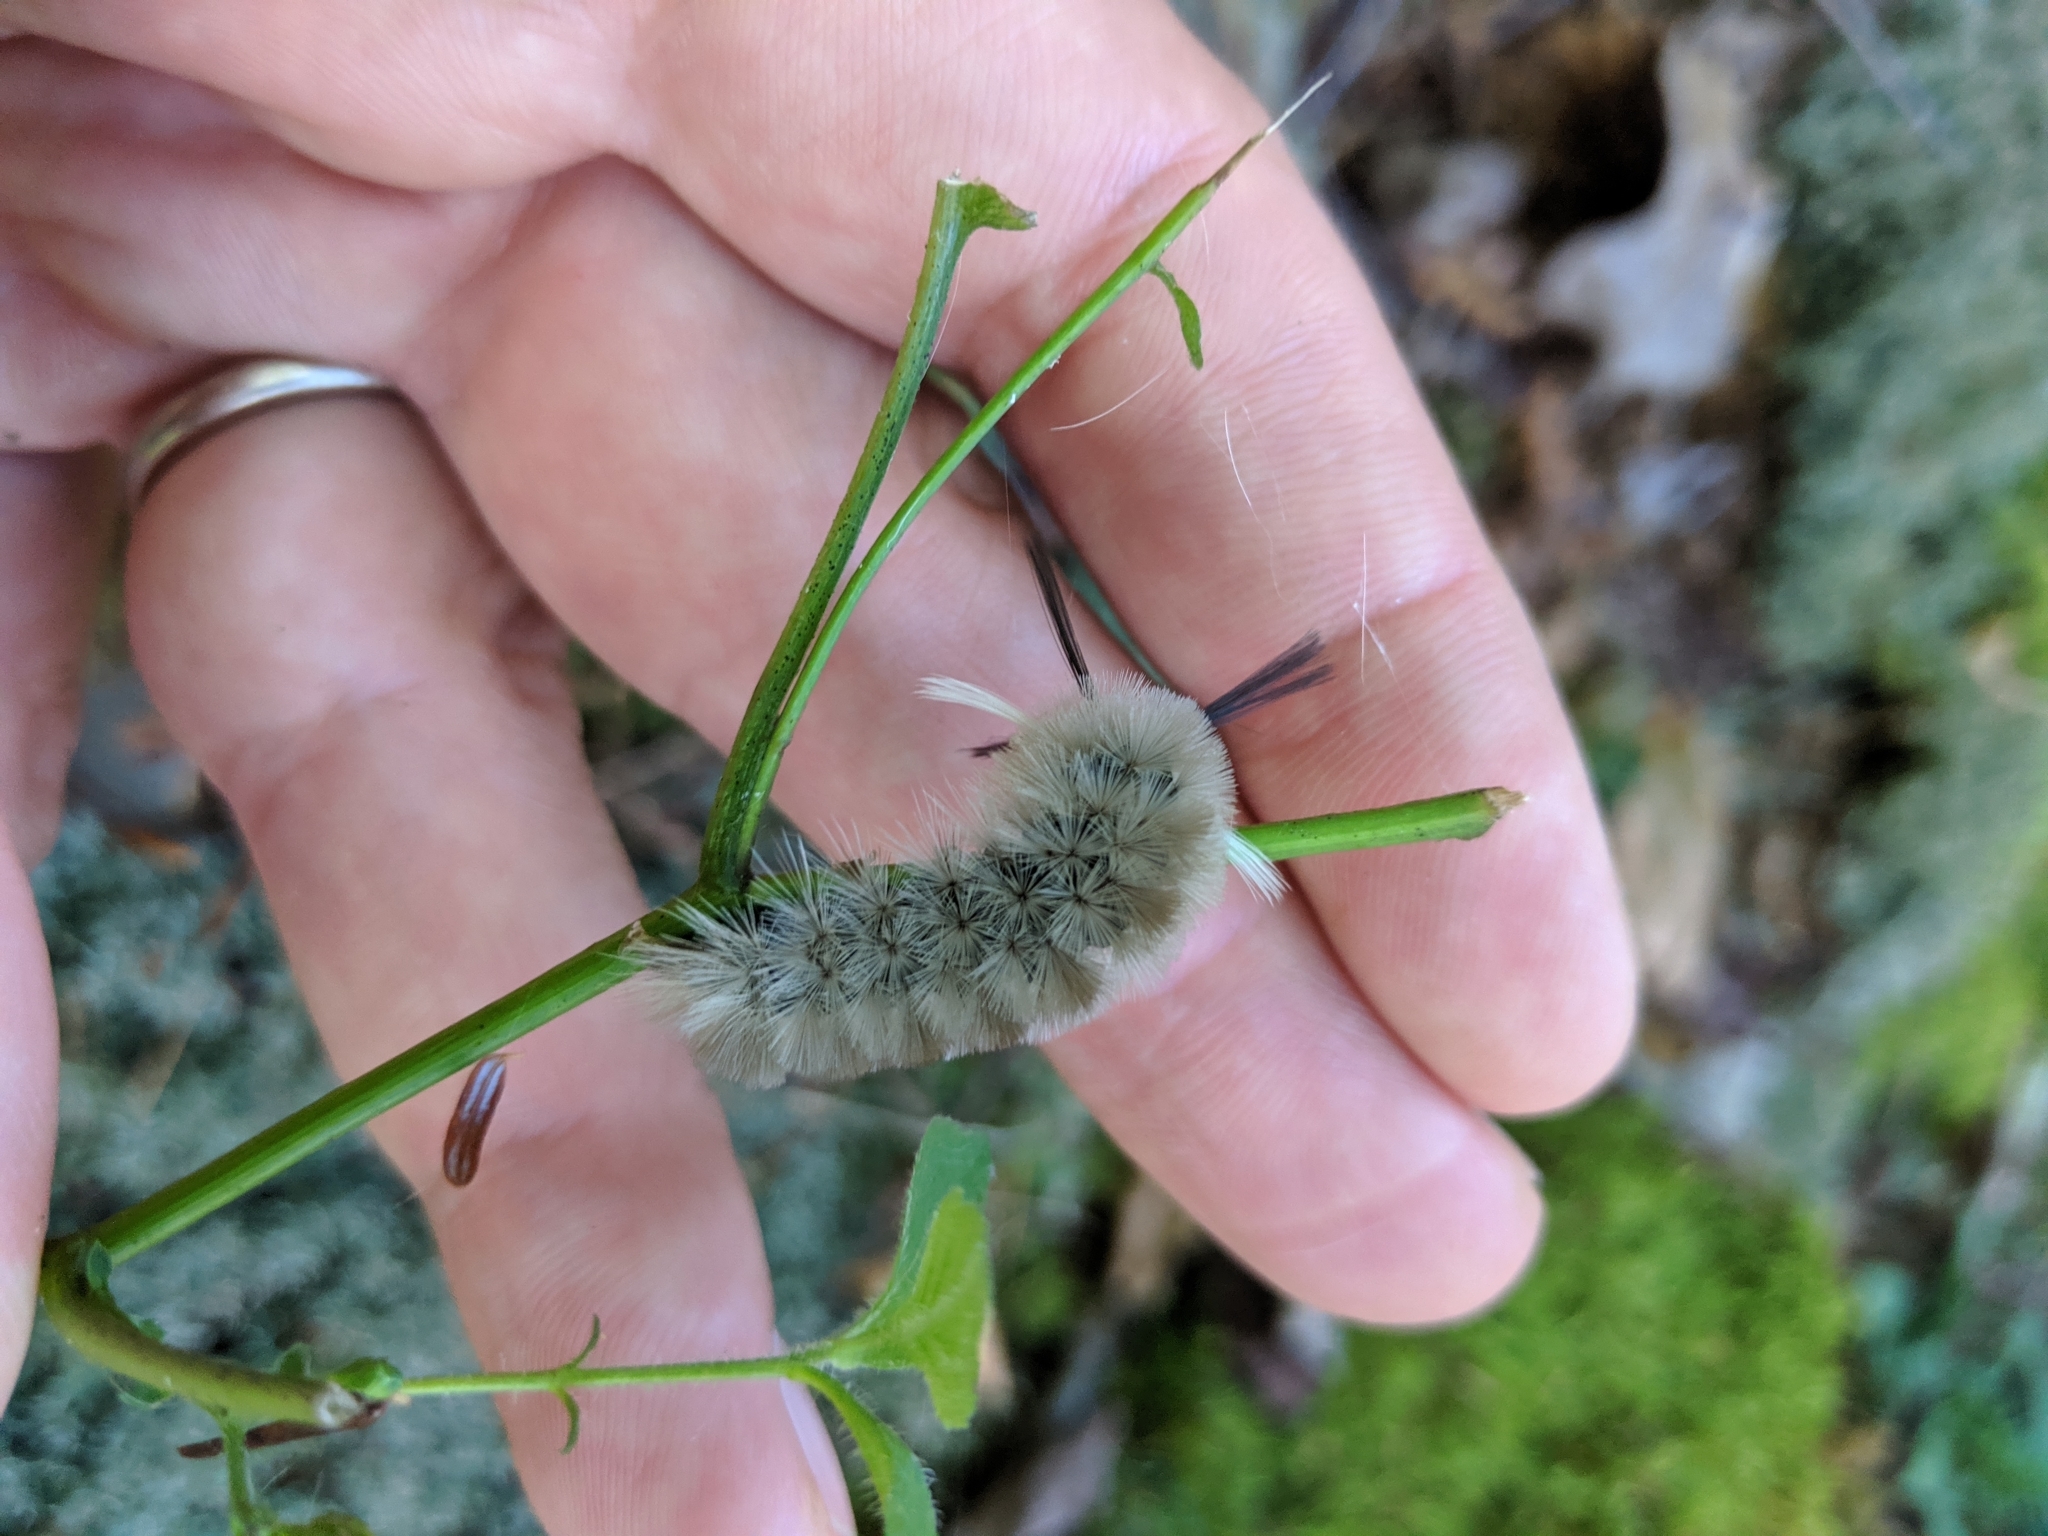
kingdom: Animalia
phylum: Arthropoda
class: Insecta
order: Lepidoptera
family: Erebidae
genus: Halysidota
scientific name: Halysidota tessellaris
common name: Banded tussock moth
